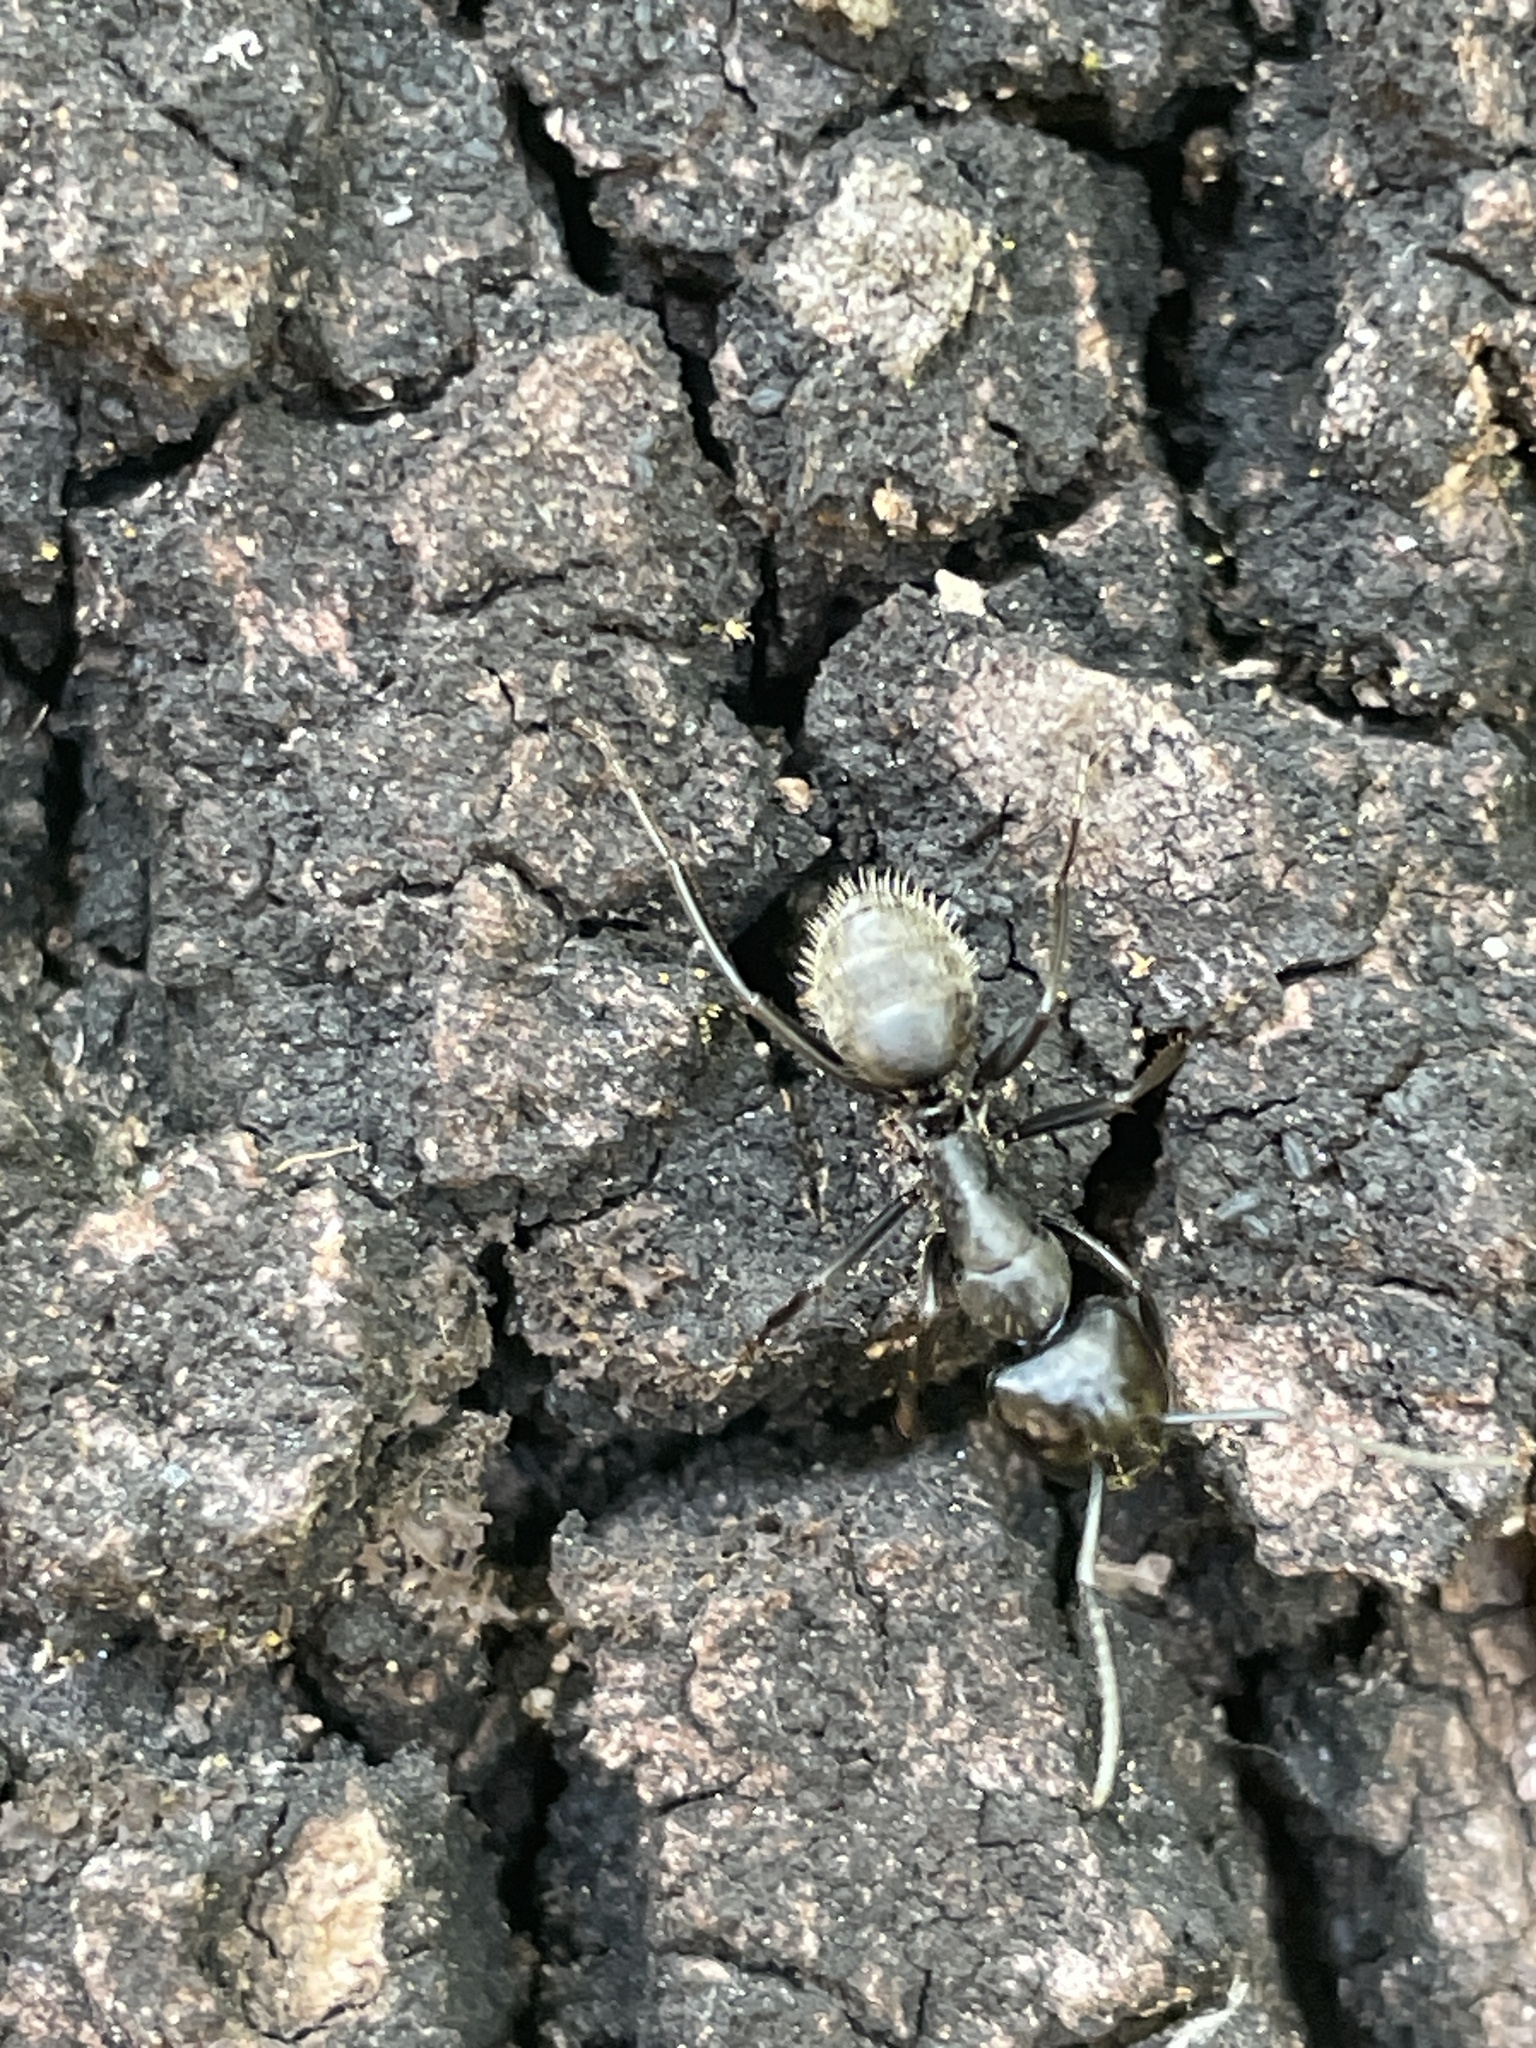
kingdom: Animalia
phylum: Arthropoda
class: Insecta
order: Hymenoptera
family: Formicidae
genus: Camponotus
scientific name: Camponotus vagus
